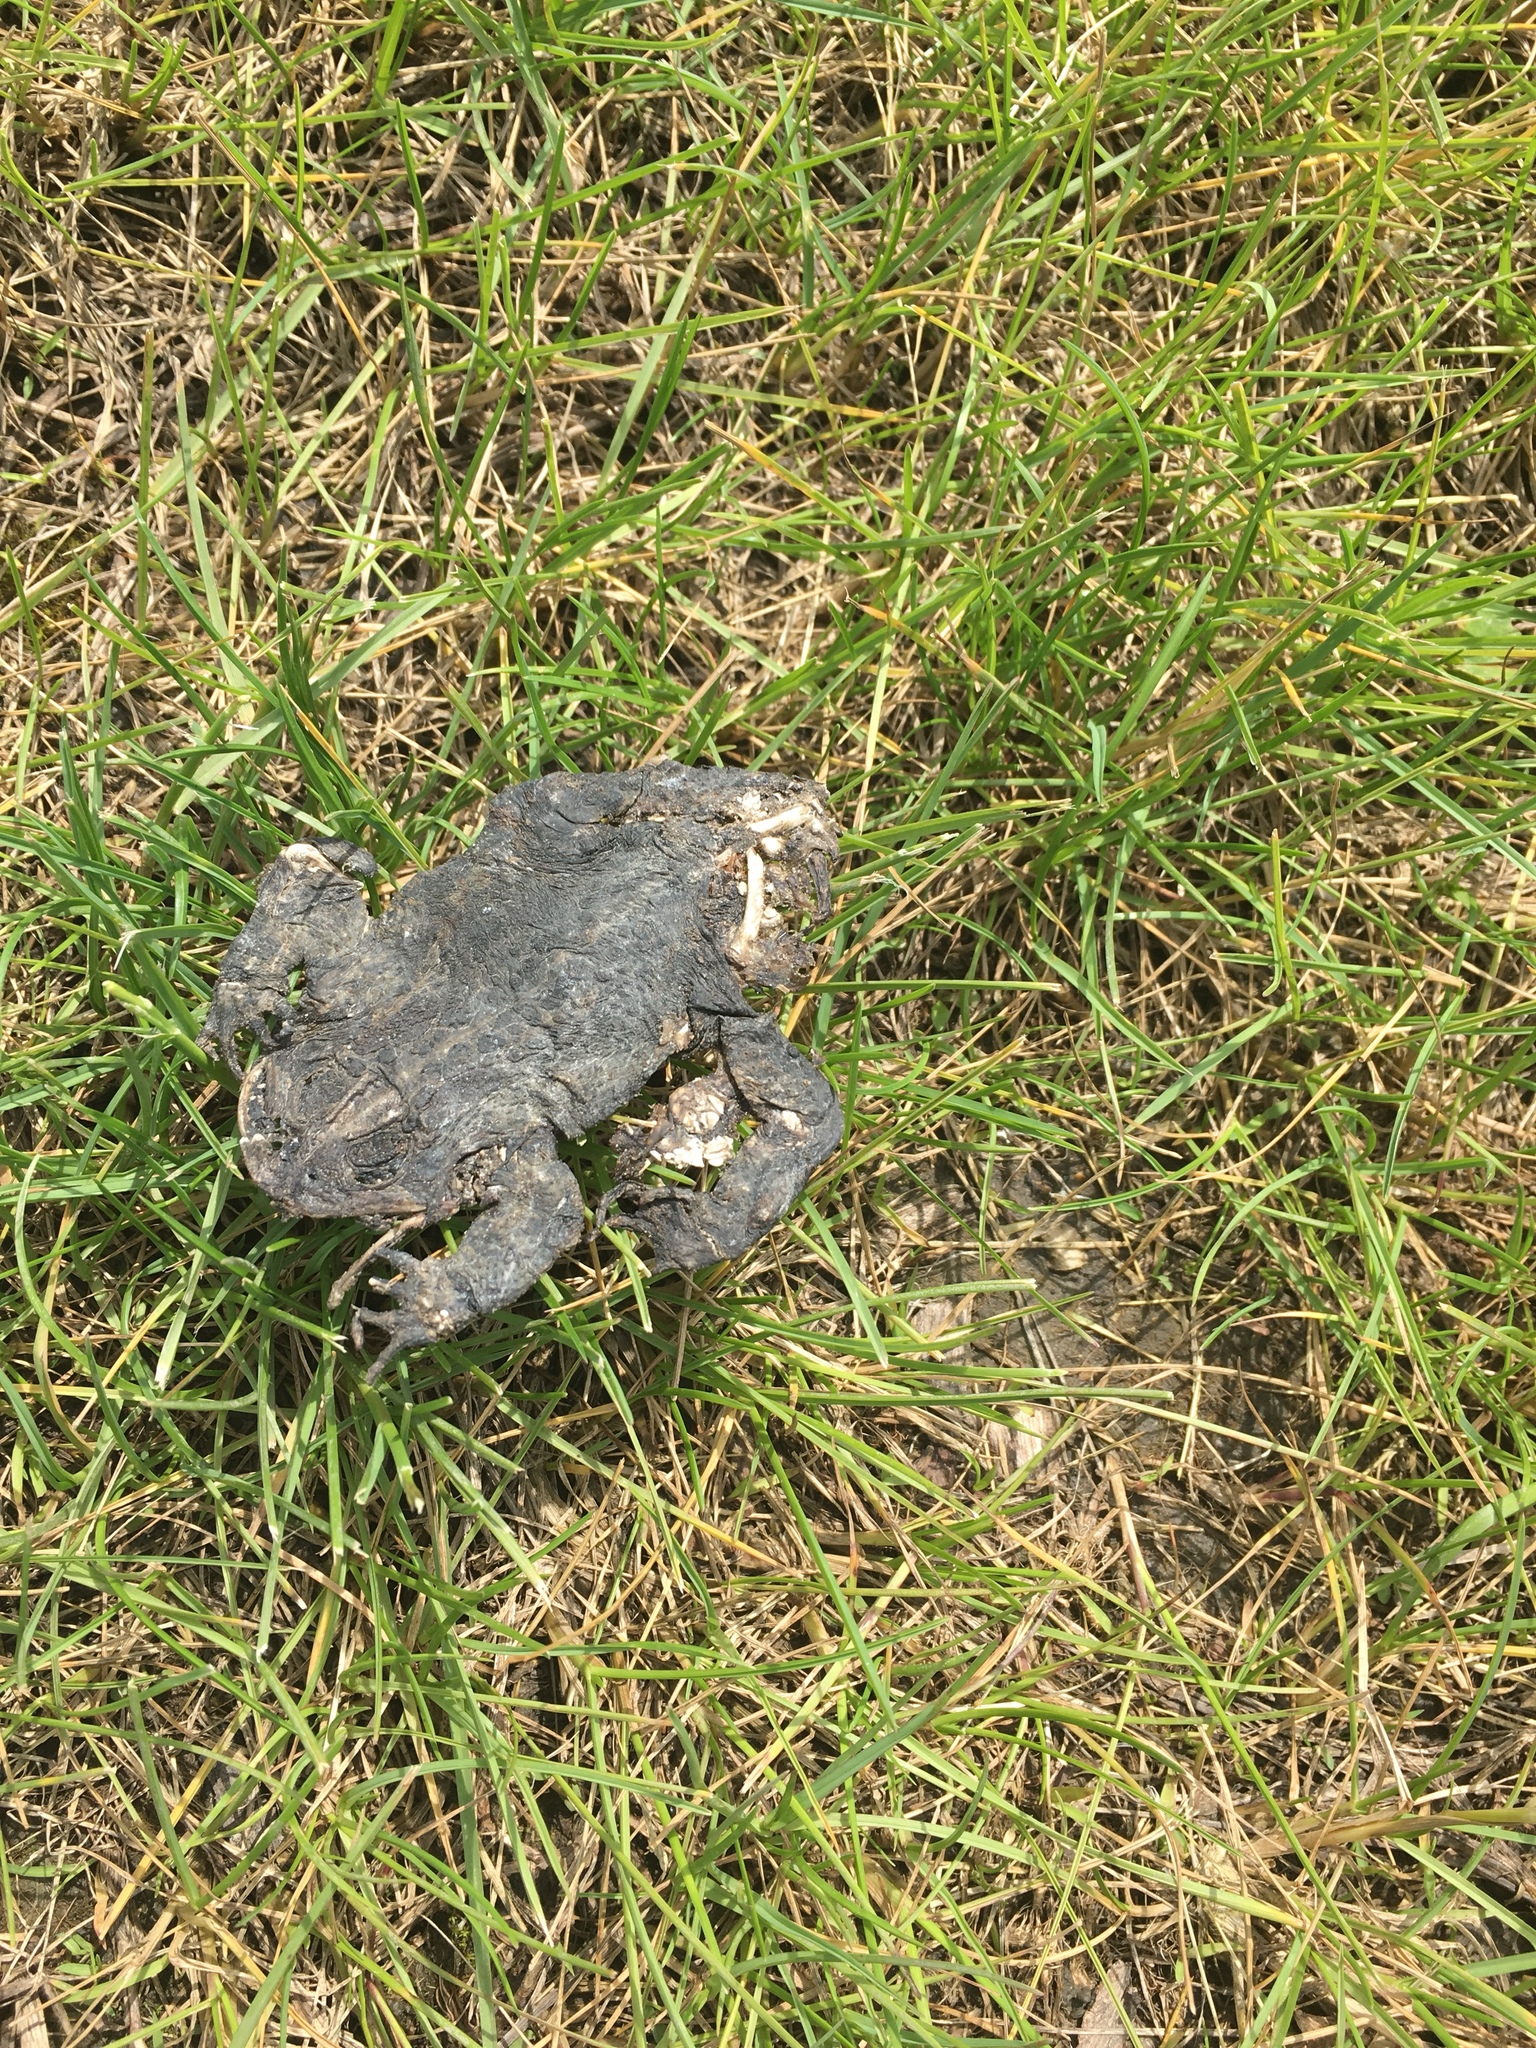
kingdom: Animalia
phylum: Chordata
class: Amphibia
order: Anura
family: Bufonidae
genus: Anaxyrus
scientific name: Anaxyrus
